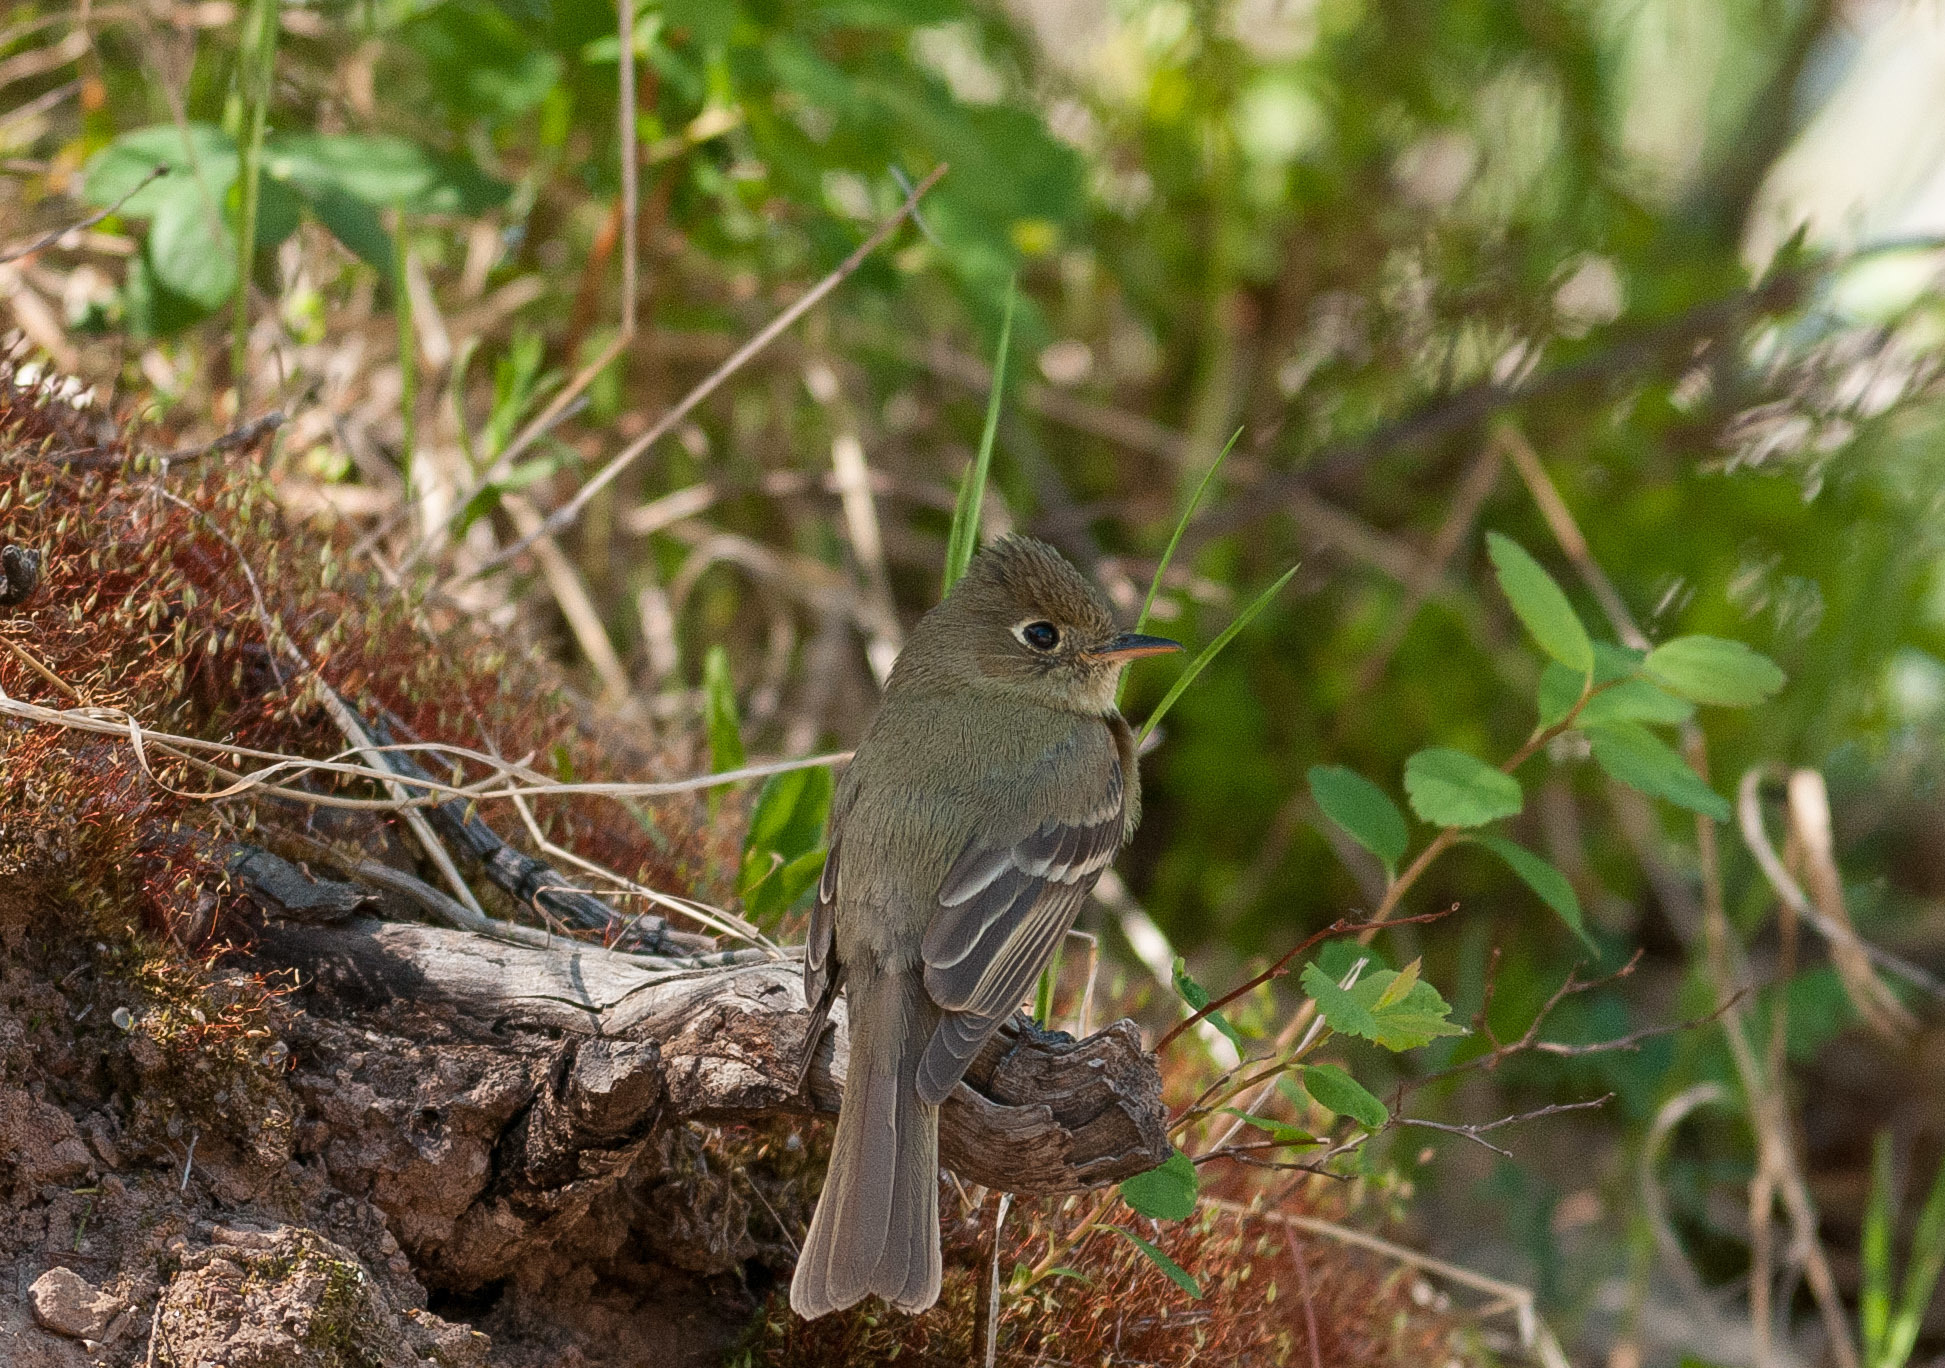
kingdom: Animalia
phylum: Chordata
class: Aves
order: Passeriformes
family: Tyrannidae
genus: Empidonax
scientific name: Empidonax difficilis
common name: Pacific-slope flycatcher
